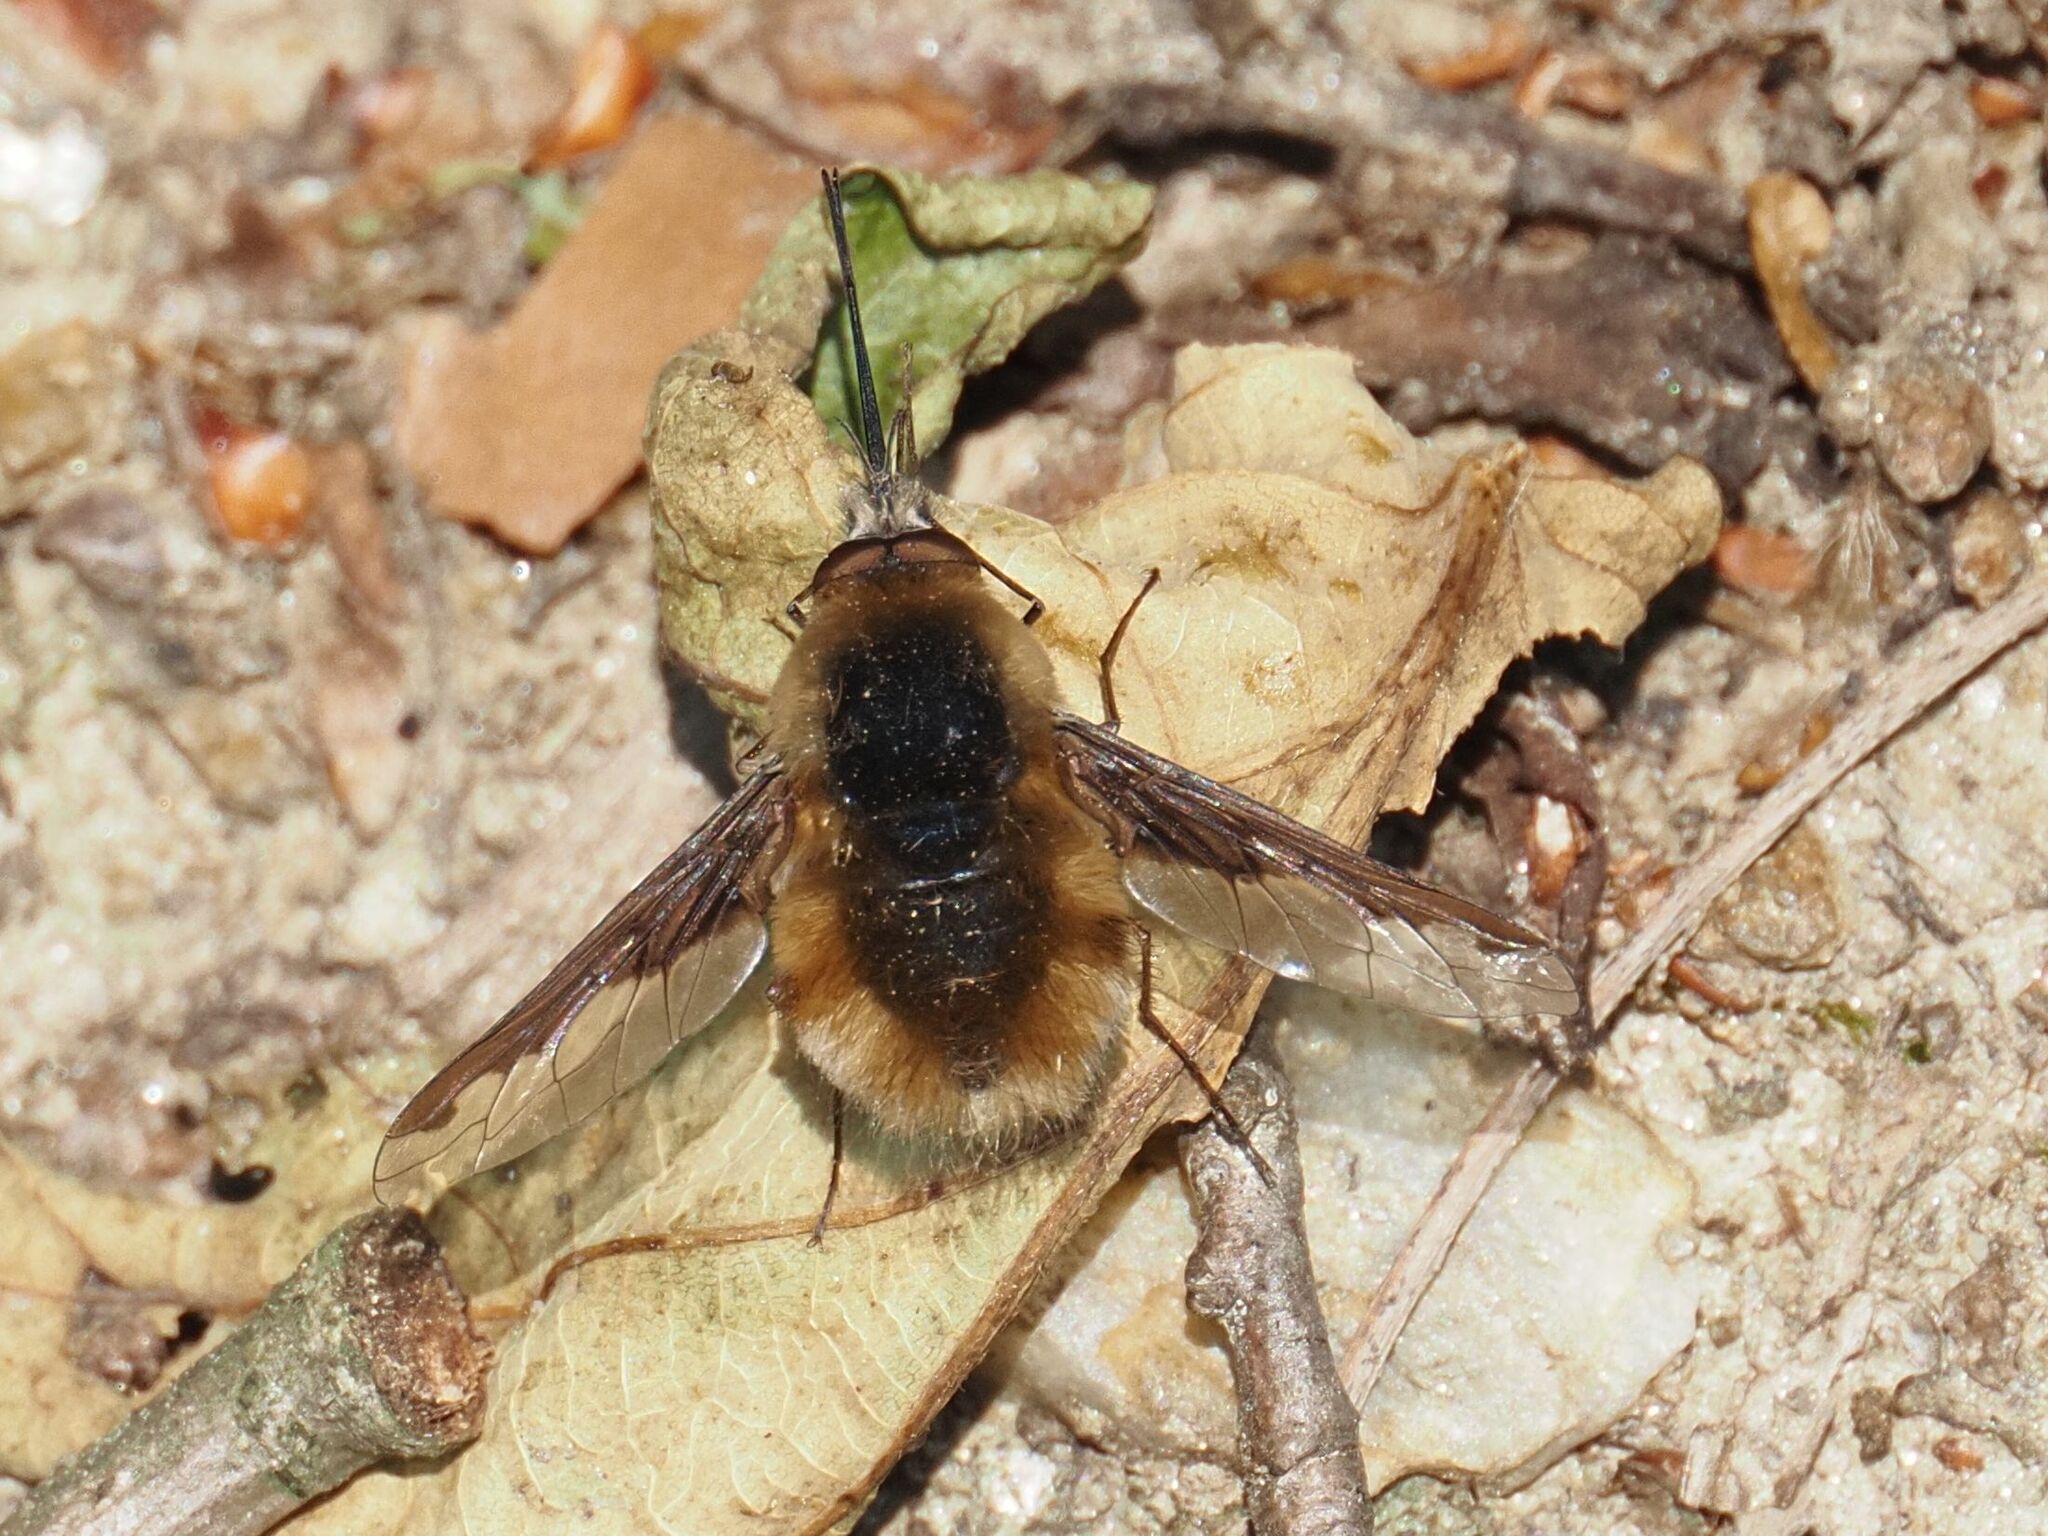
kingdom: Animalia
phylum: Arthropoda
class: Insecta
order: Diptera
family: Bombyliidae
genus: Bombylius
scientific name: Bombylius major
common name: Bee fly
